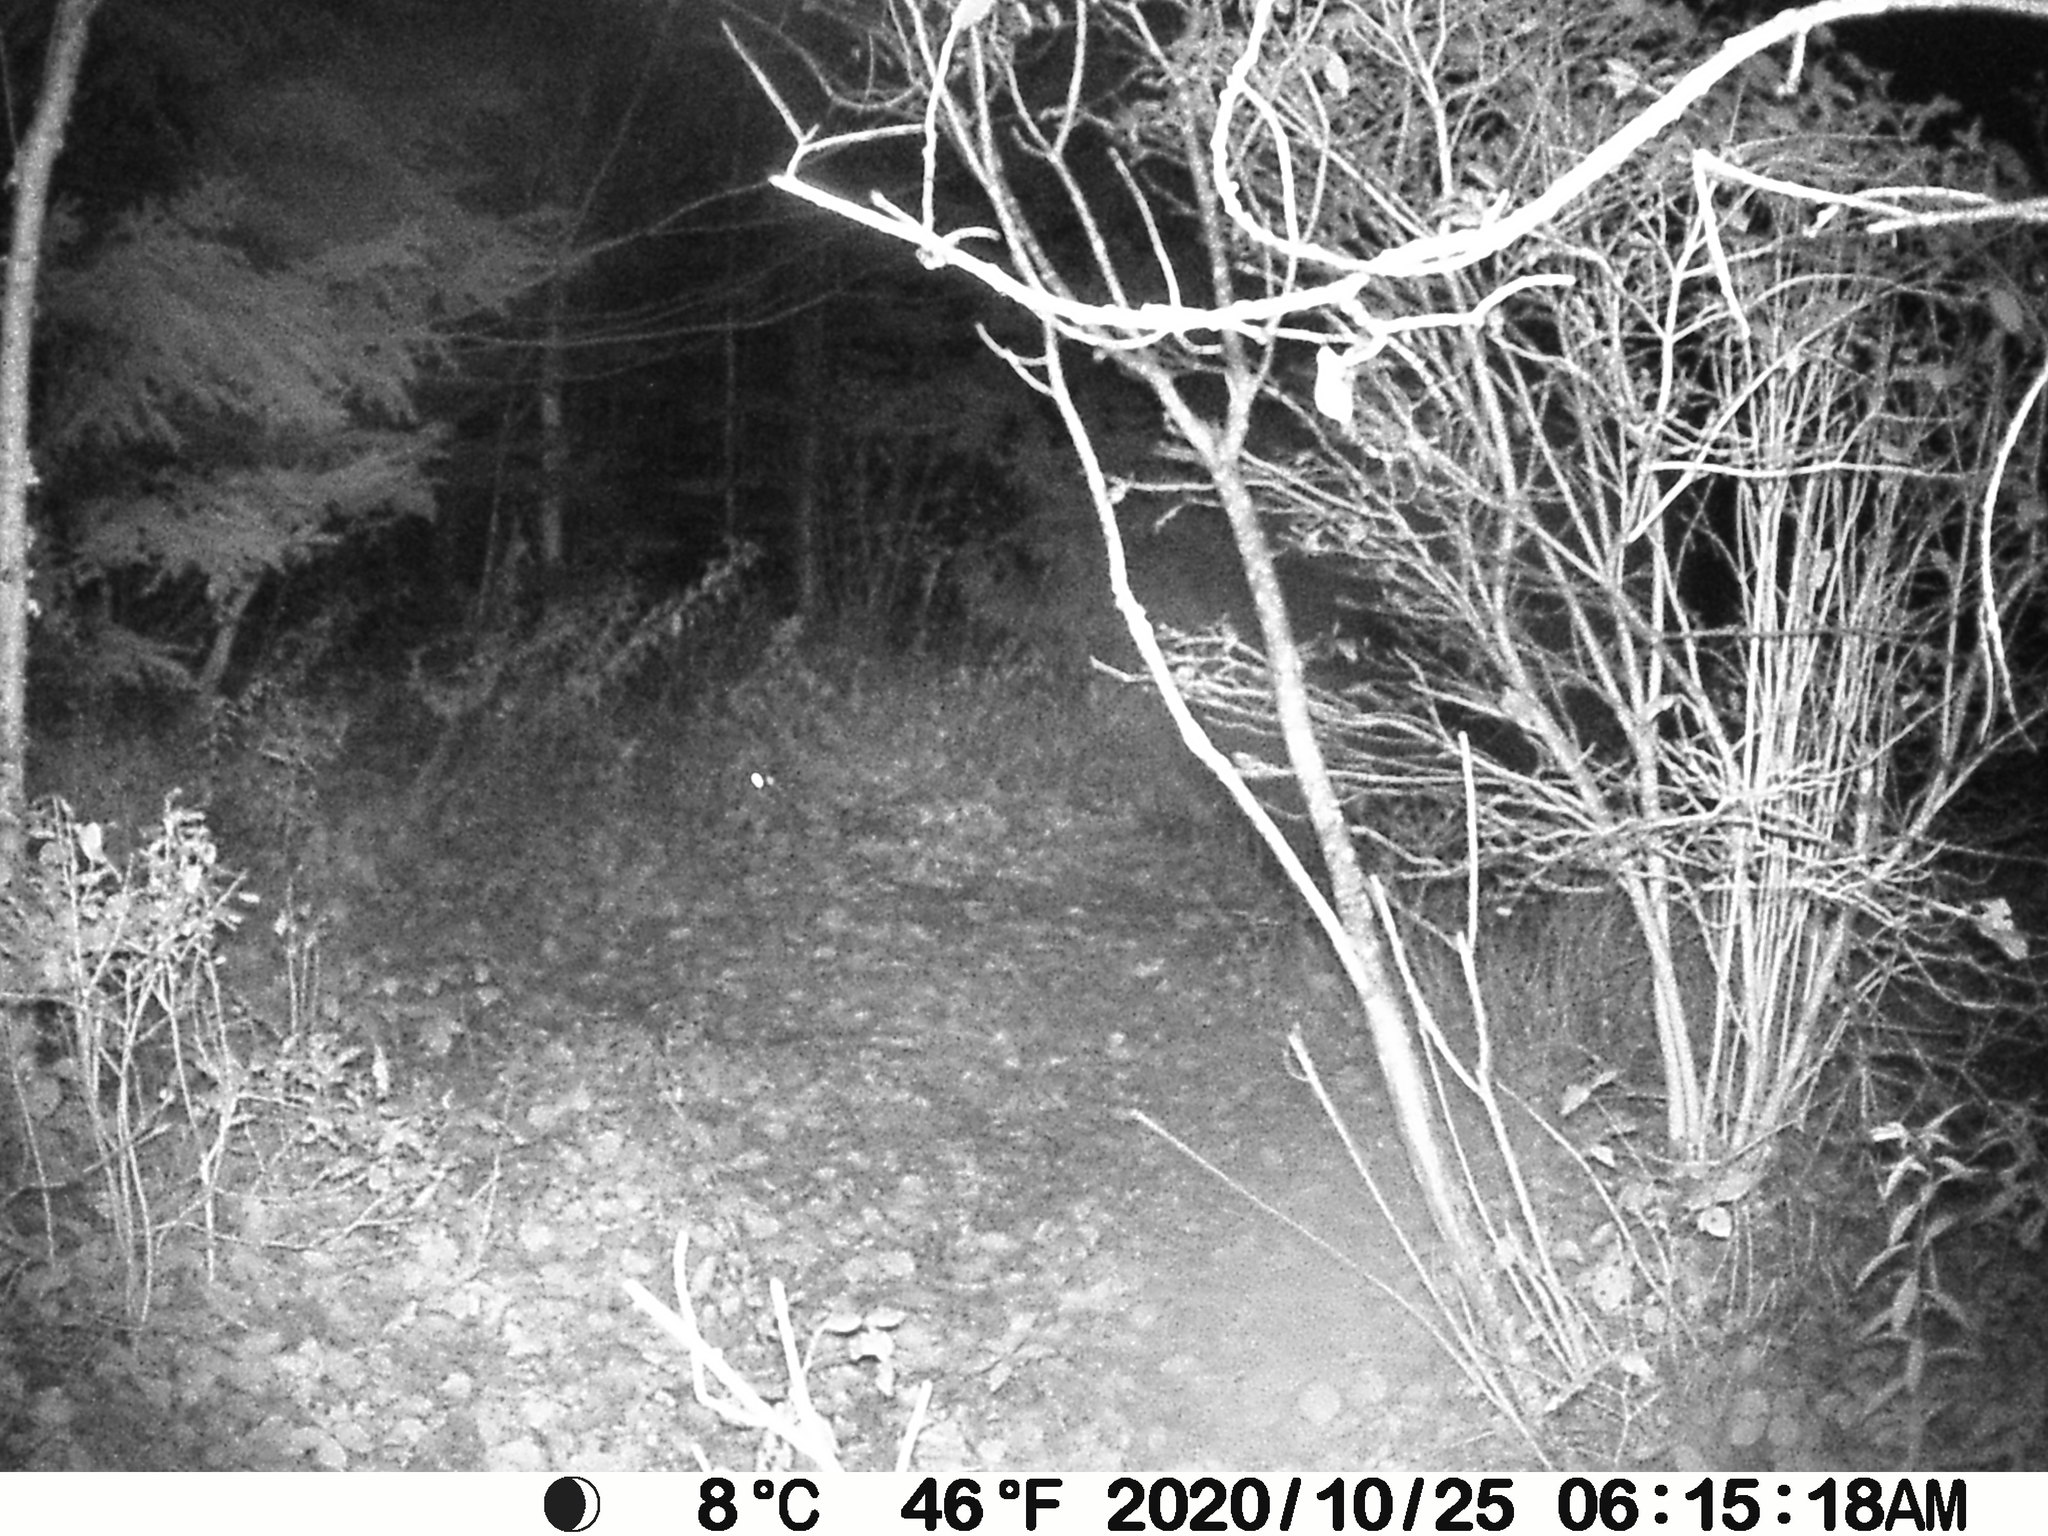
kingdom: Animalia
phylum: Chordata
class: Mammalia
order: Lagomorpha
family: Leporidae
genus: Lepus
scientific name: Lepus americanus
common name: Snowshoe hare
